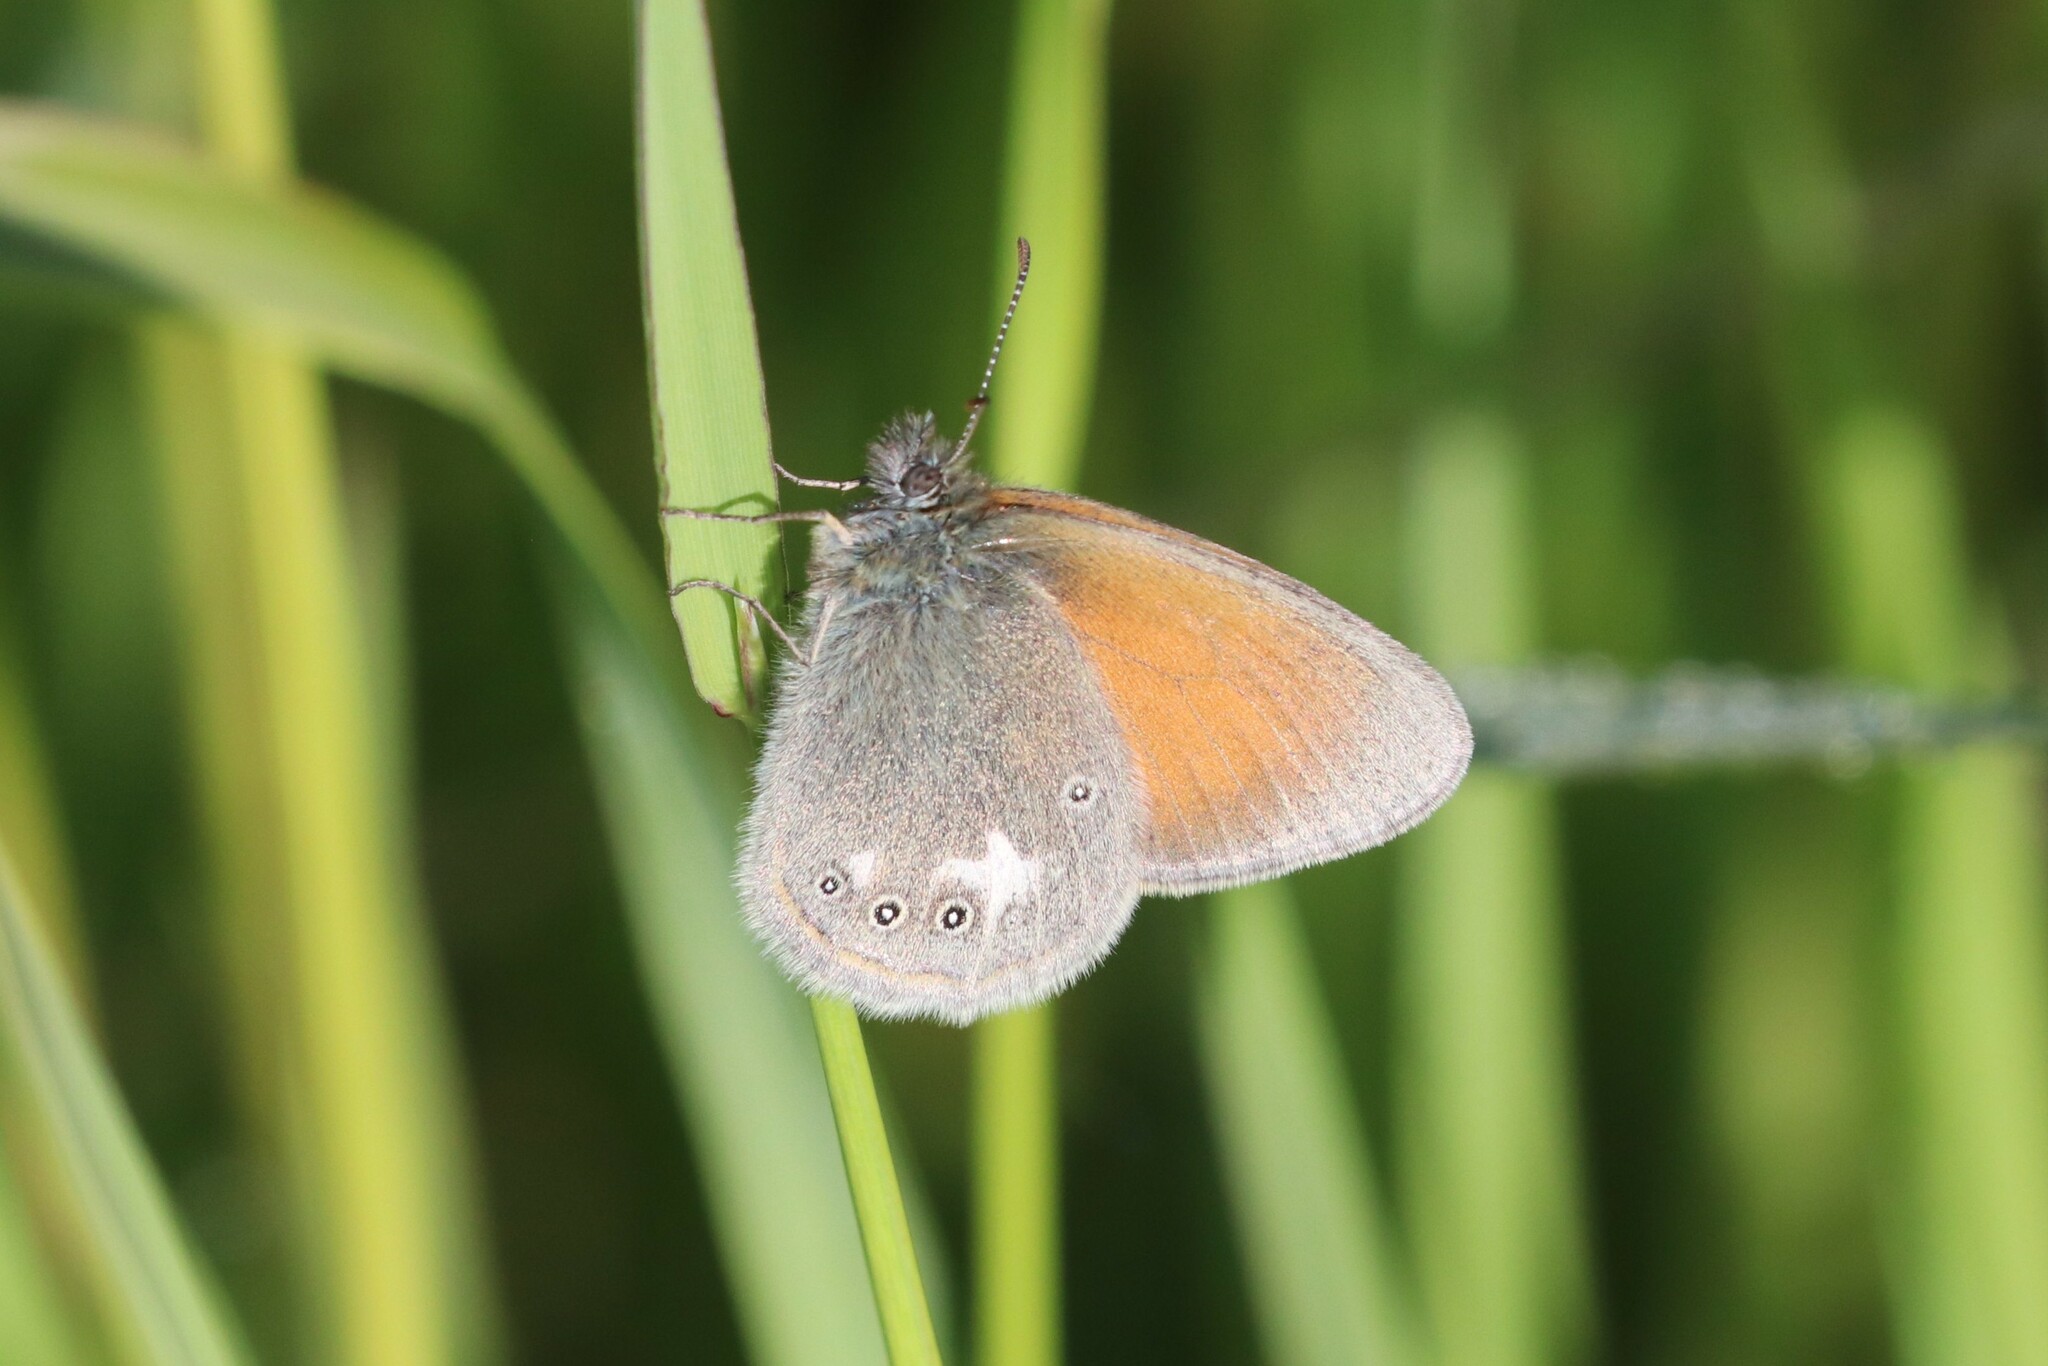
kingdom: Animalia
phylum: Arthropoda
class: Insecta
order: Lepidoptera
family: Nymphalidae
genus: Coenonympha
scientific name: Coenonympha iphis
